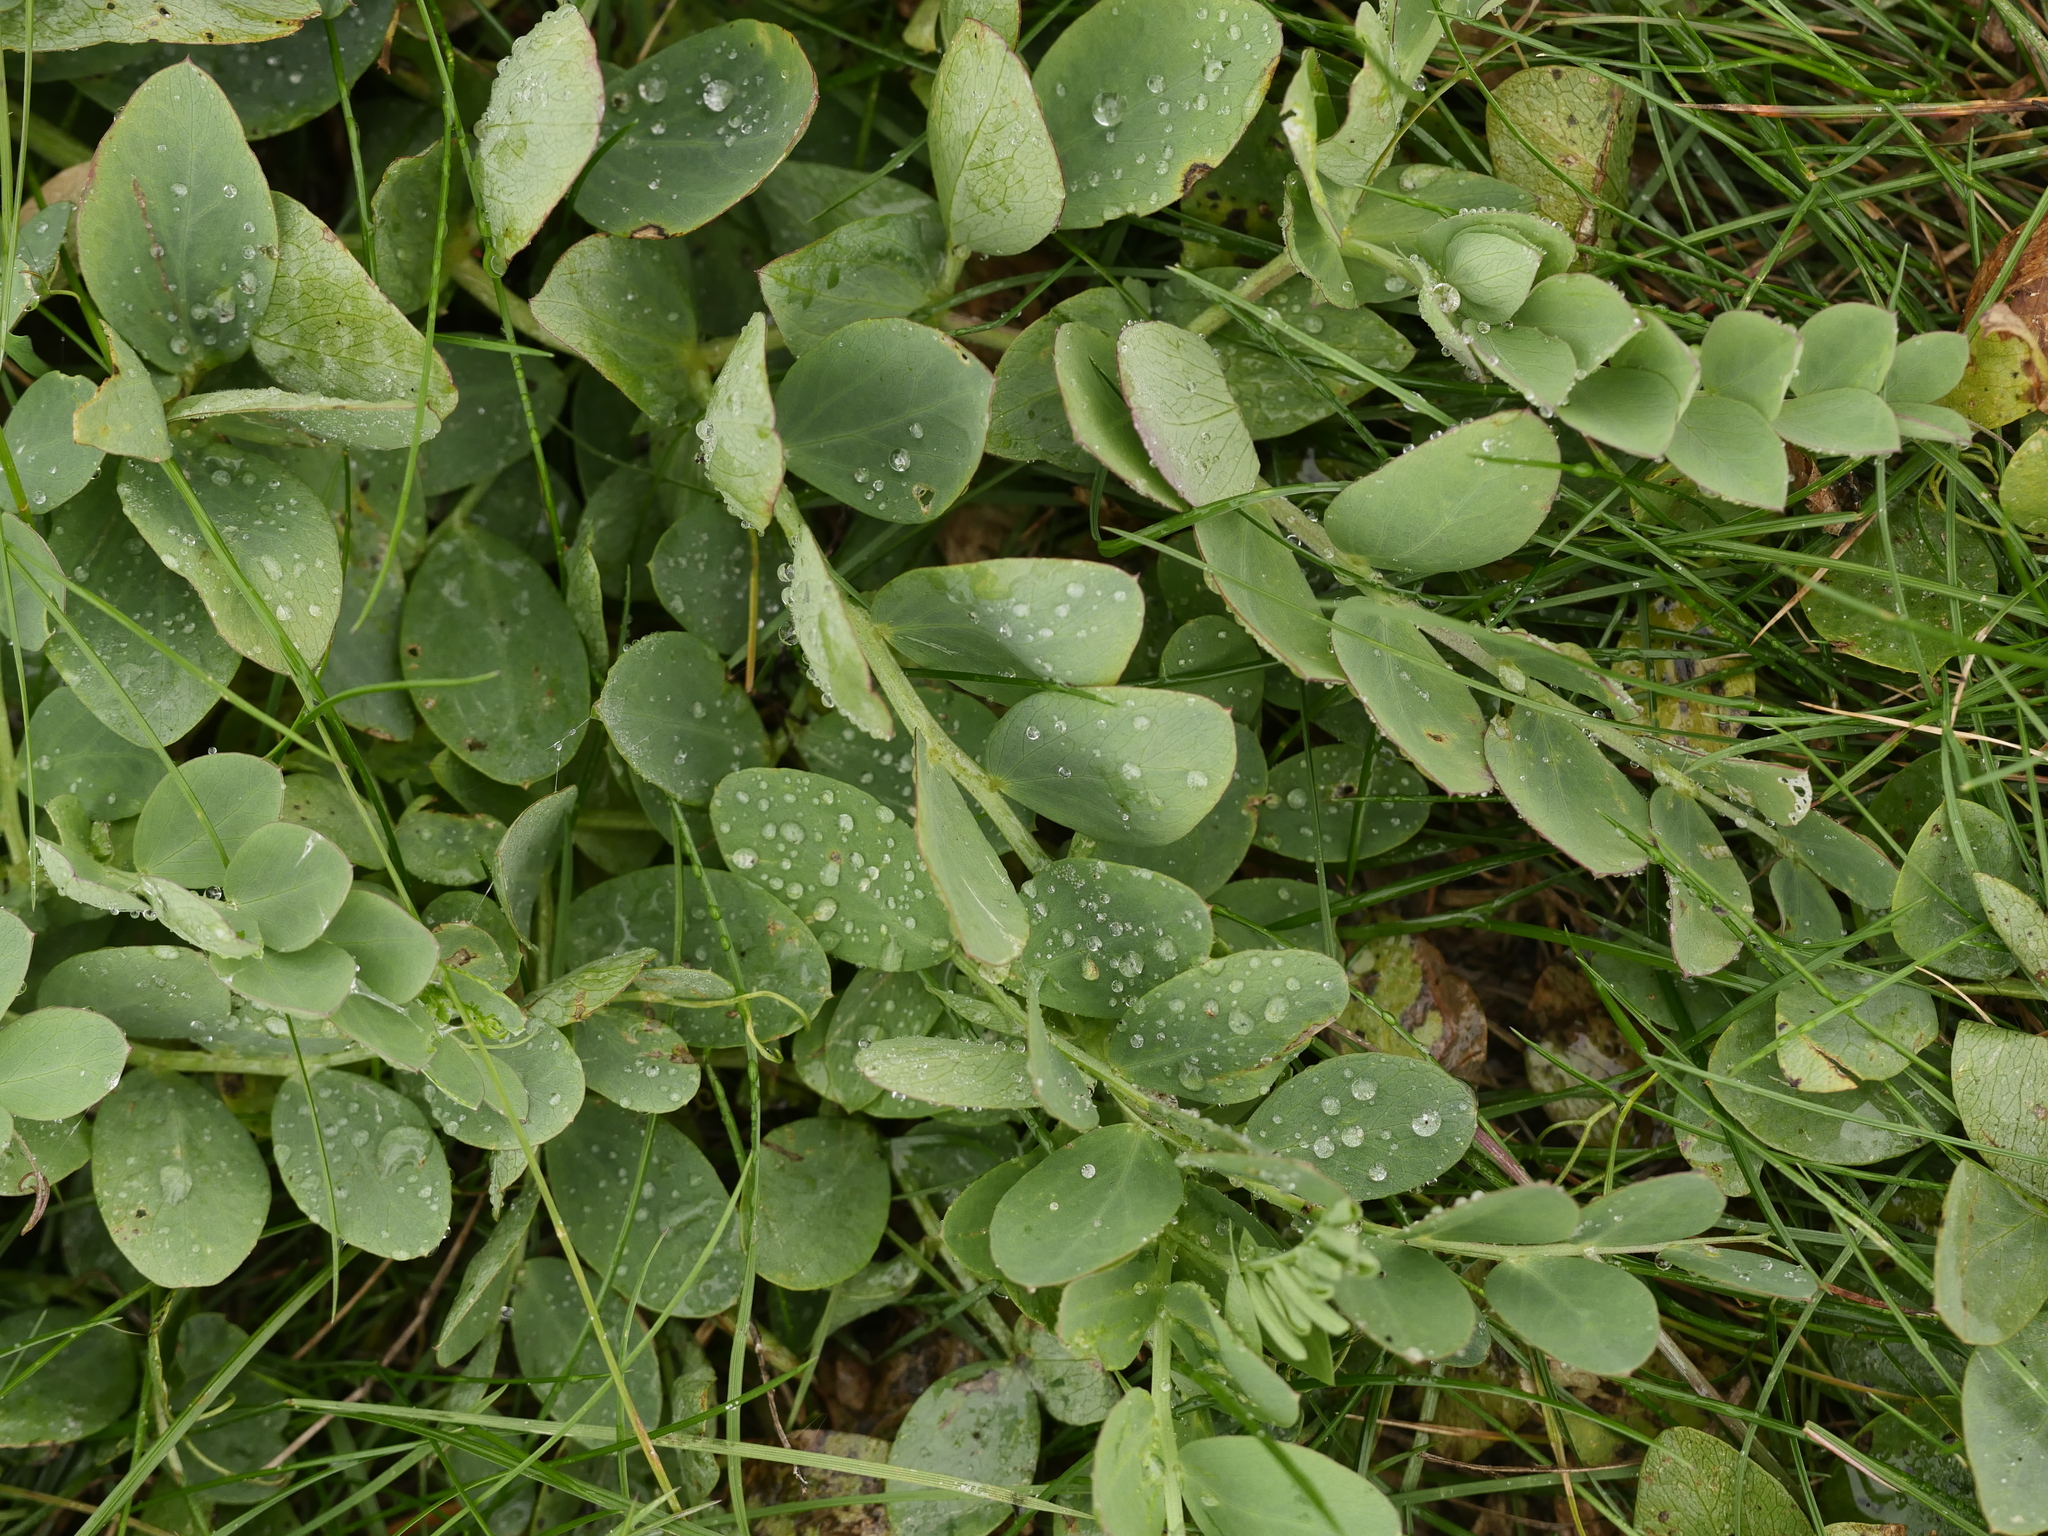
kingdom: Plantae
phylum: Tracheophyta
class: Magnoliopsida
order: Fabales
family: Fabaceae
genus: Lathyrus
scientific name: Lathyrus japonicus
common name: Sea pea
